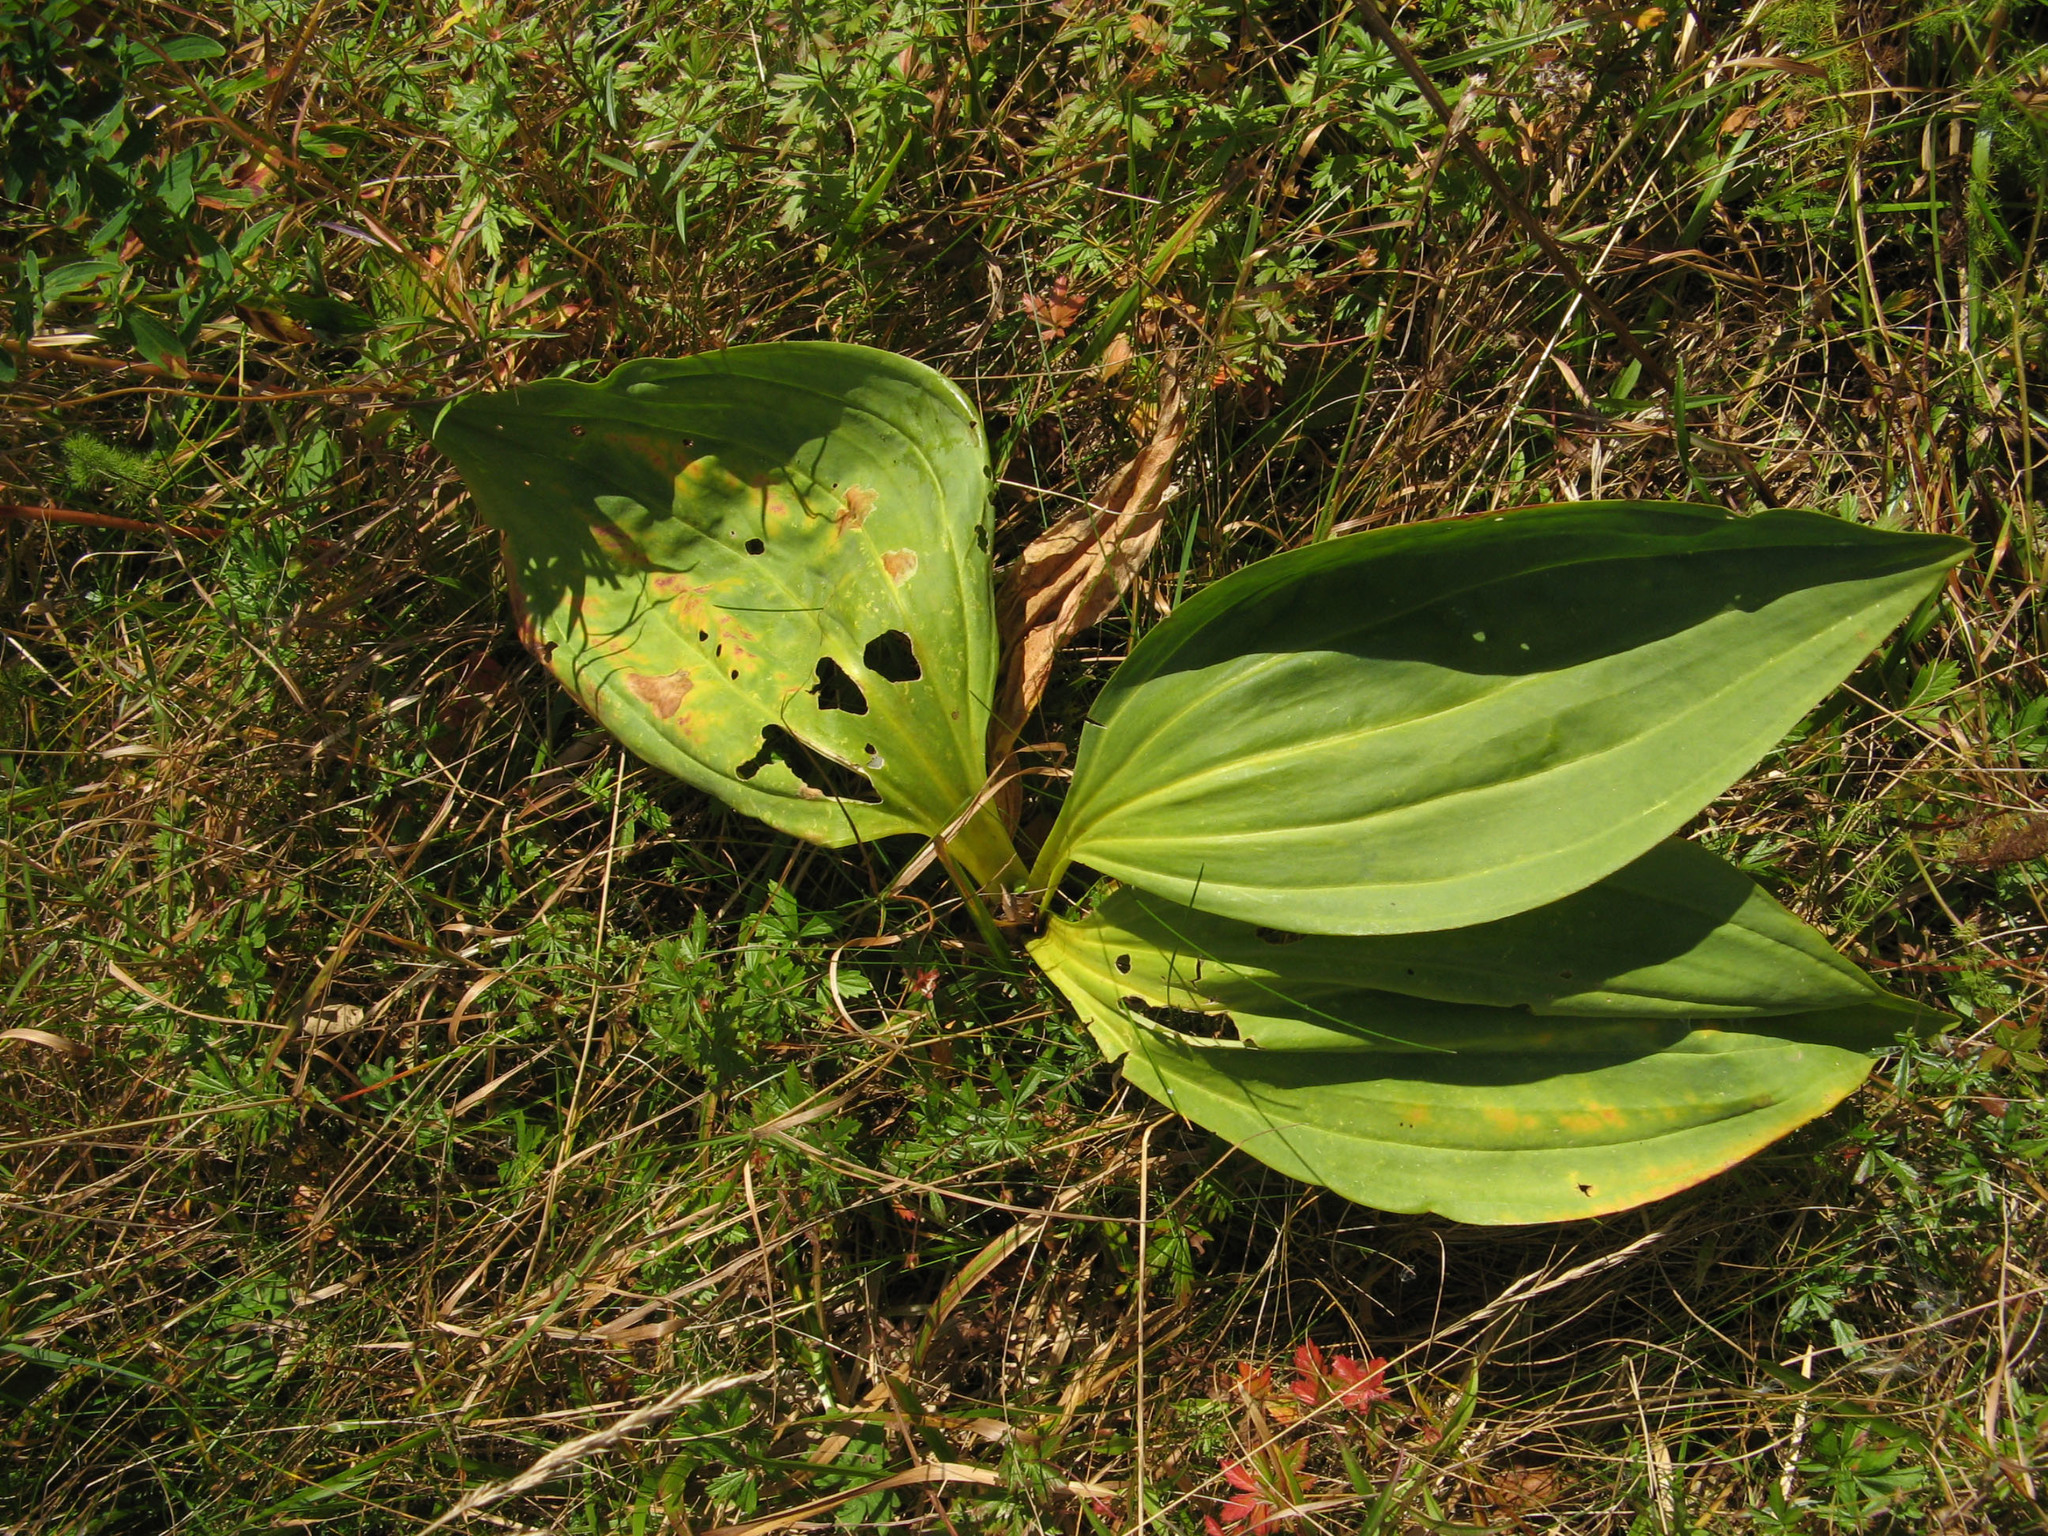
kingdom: Plantae
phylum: Tracheophyta
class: Magnoliopsida
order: Gentianales
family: Gentianaceae
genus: Gentiana
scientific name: Gentiana lutea
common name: Great yellow gentian
